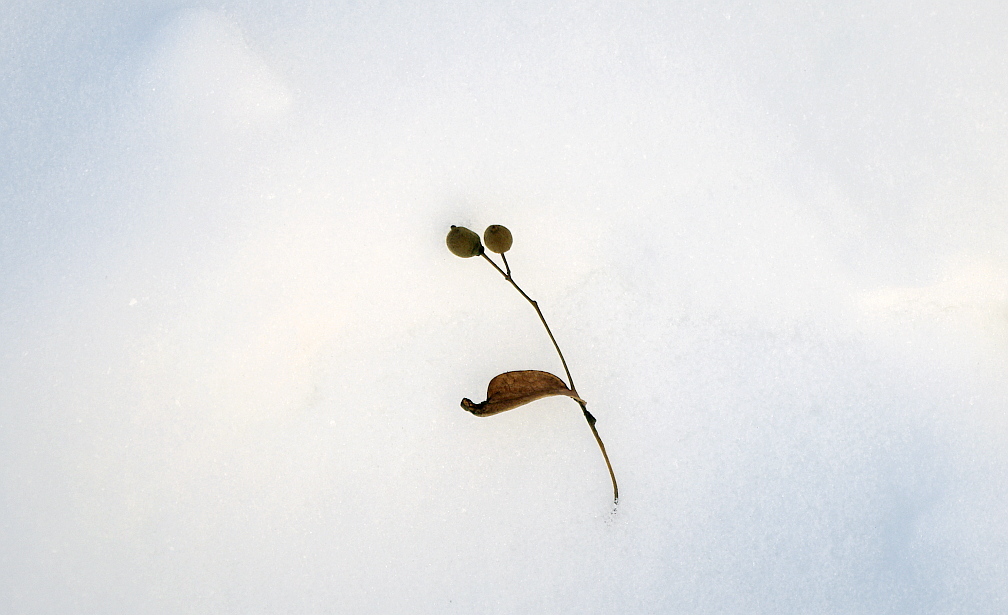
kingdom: Plantae
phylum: Tracheophyta
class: Magnoliopsida
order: Malvales
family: Malvaceae
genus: Tilia
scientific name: Tilia cordata
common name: Small-leaved lime
